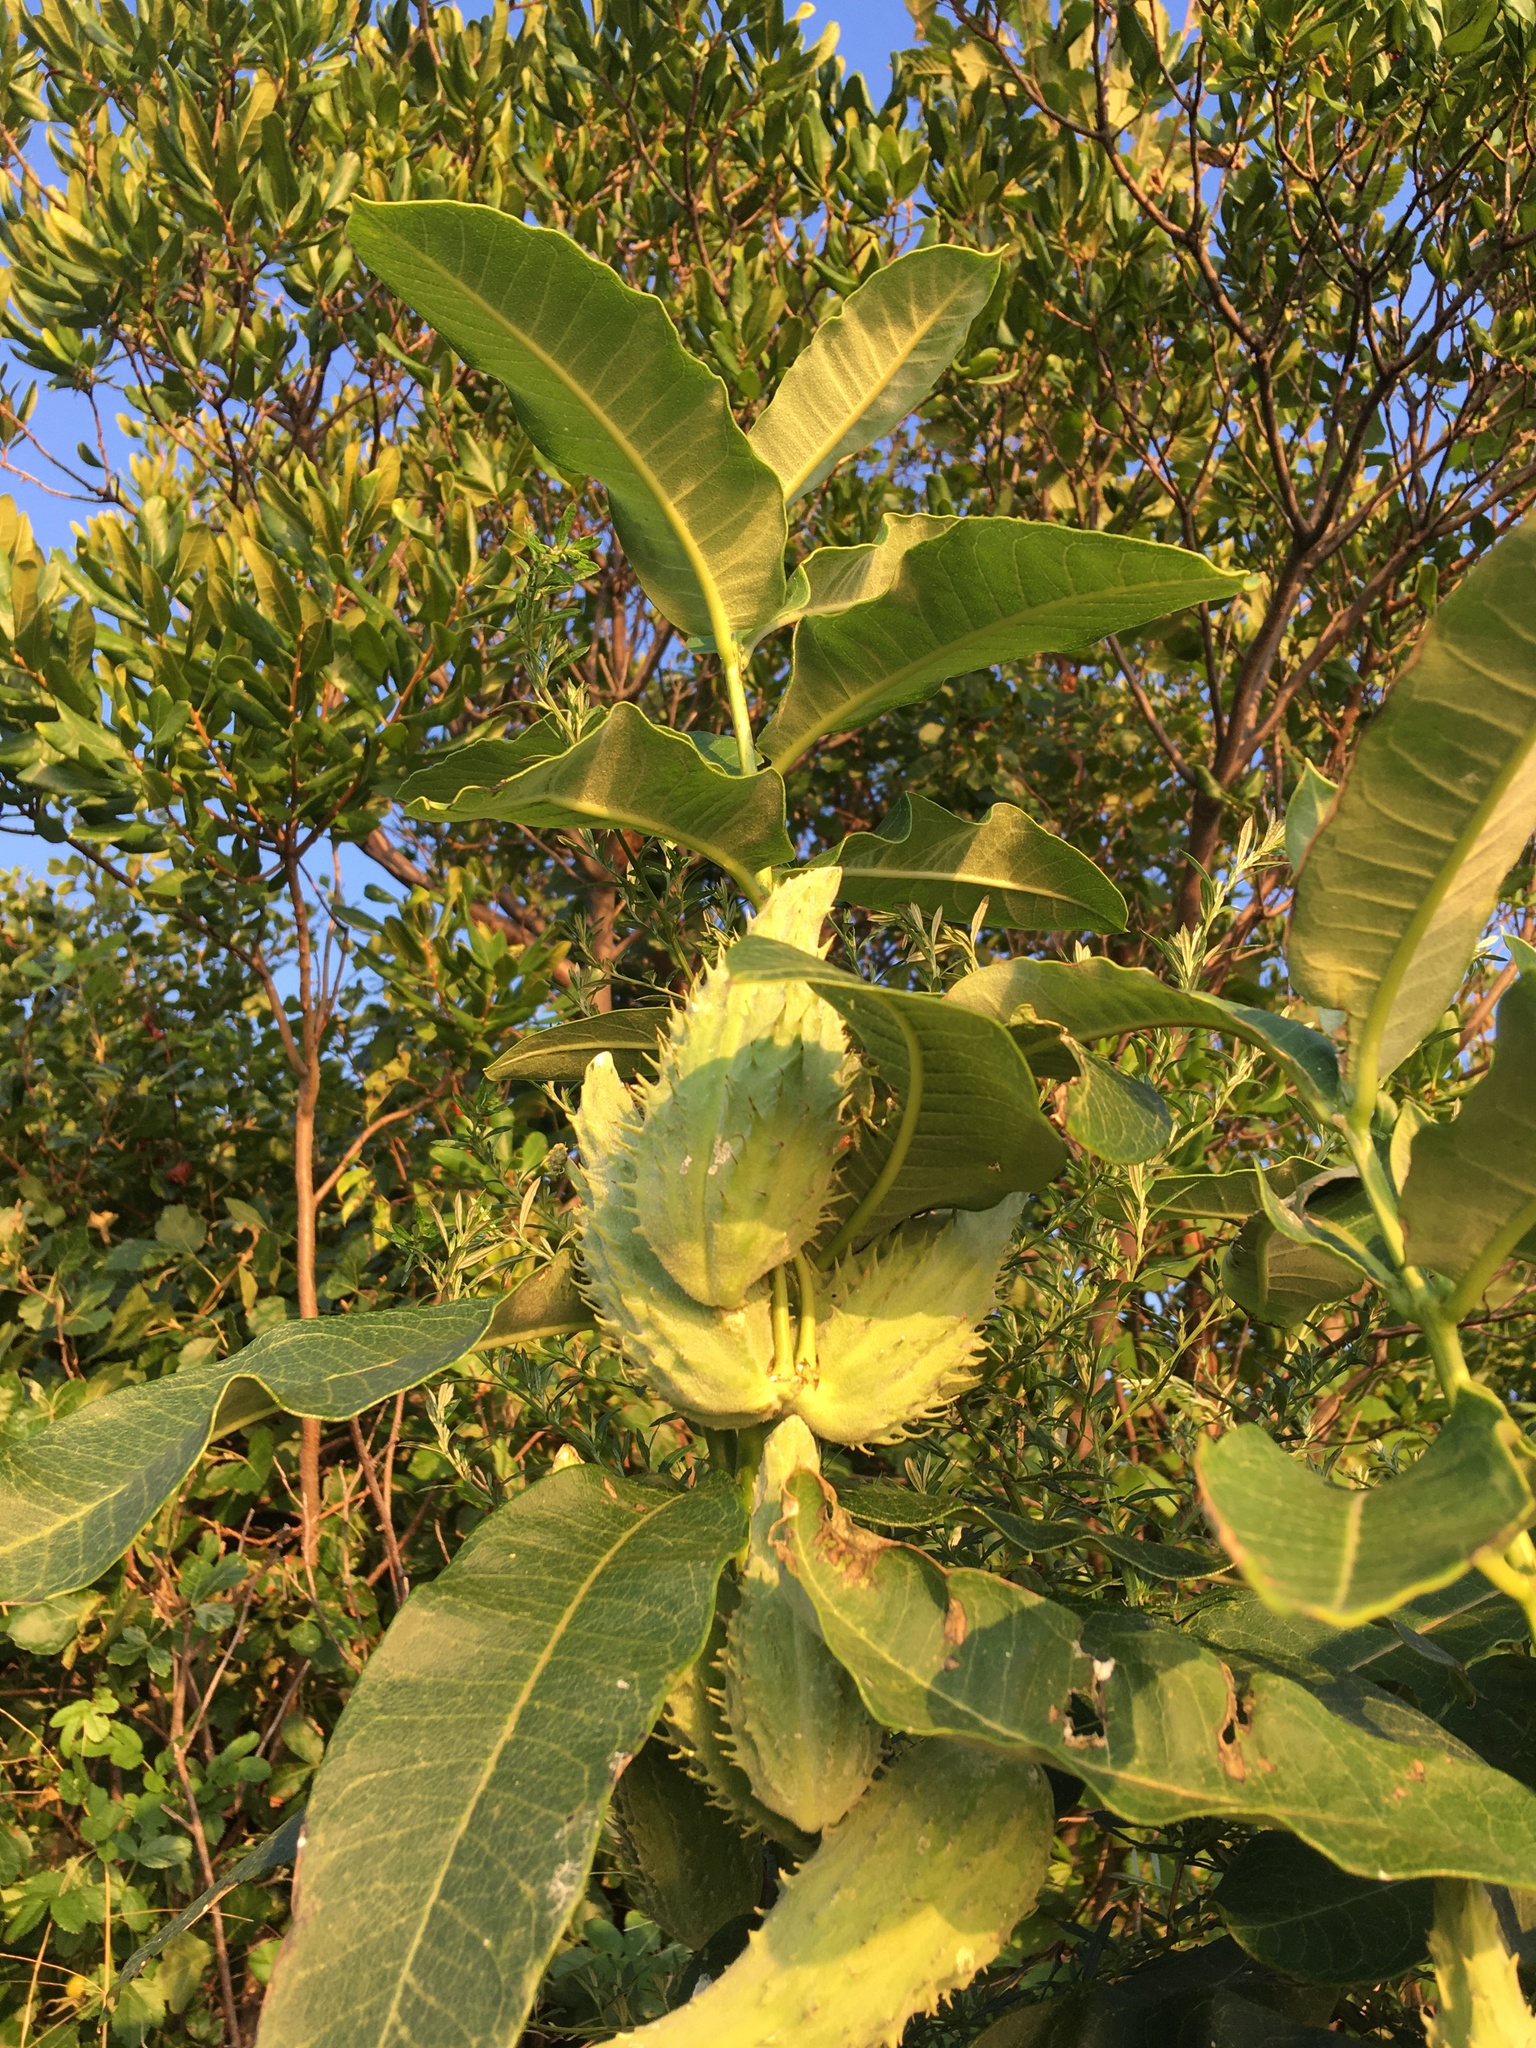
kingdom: Plantae
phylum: Tracheophyta
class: Magnoliopsida
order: Gentianales
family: Apocynaceae
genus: Asclepias
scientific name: Asclepias syriaca
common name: Common milkweed
